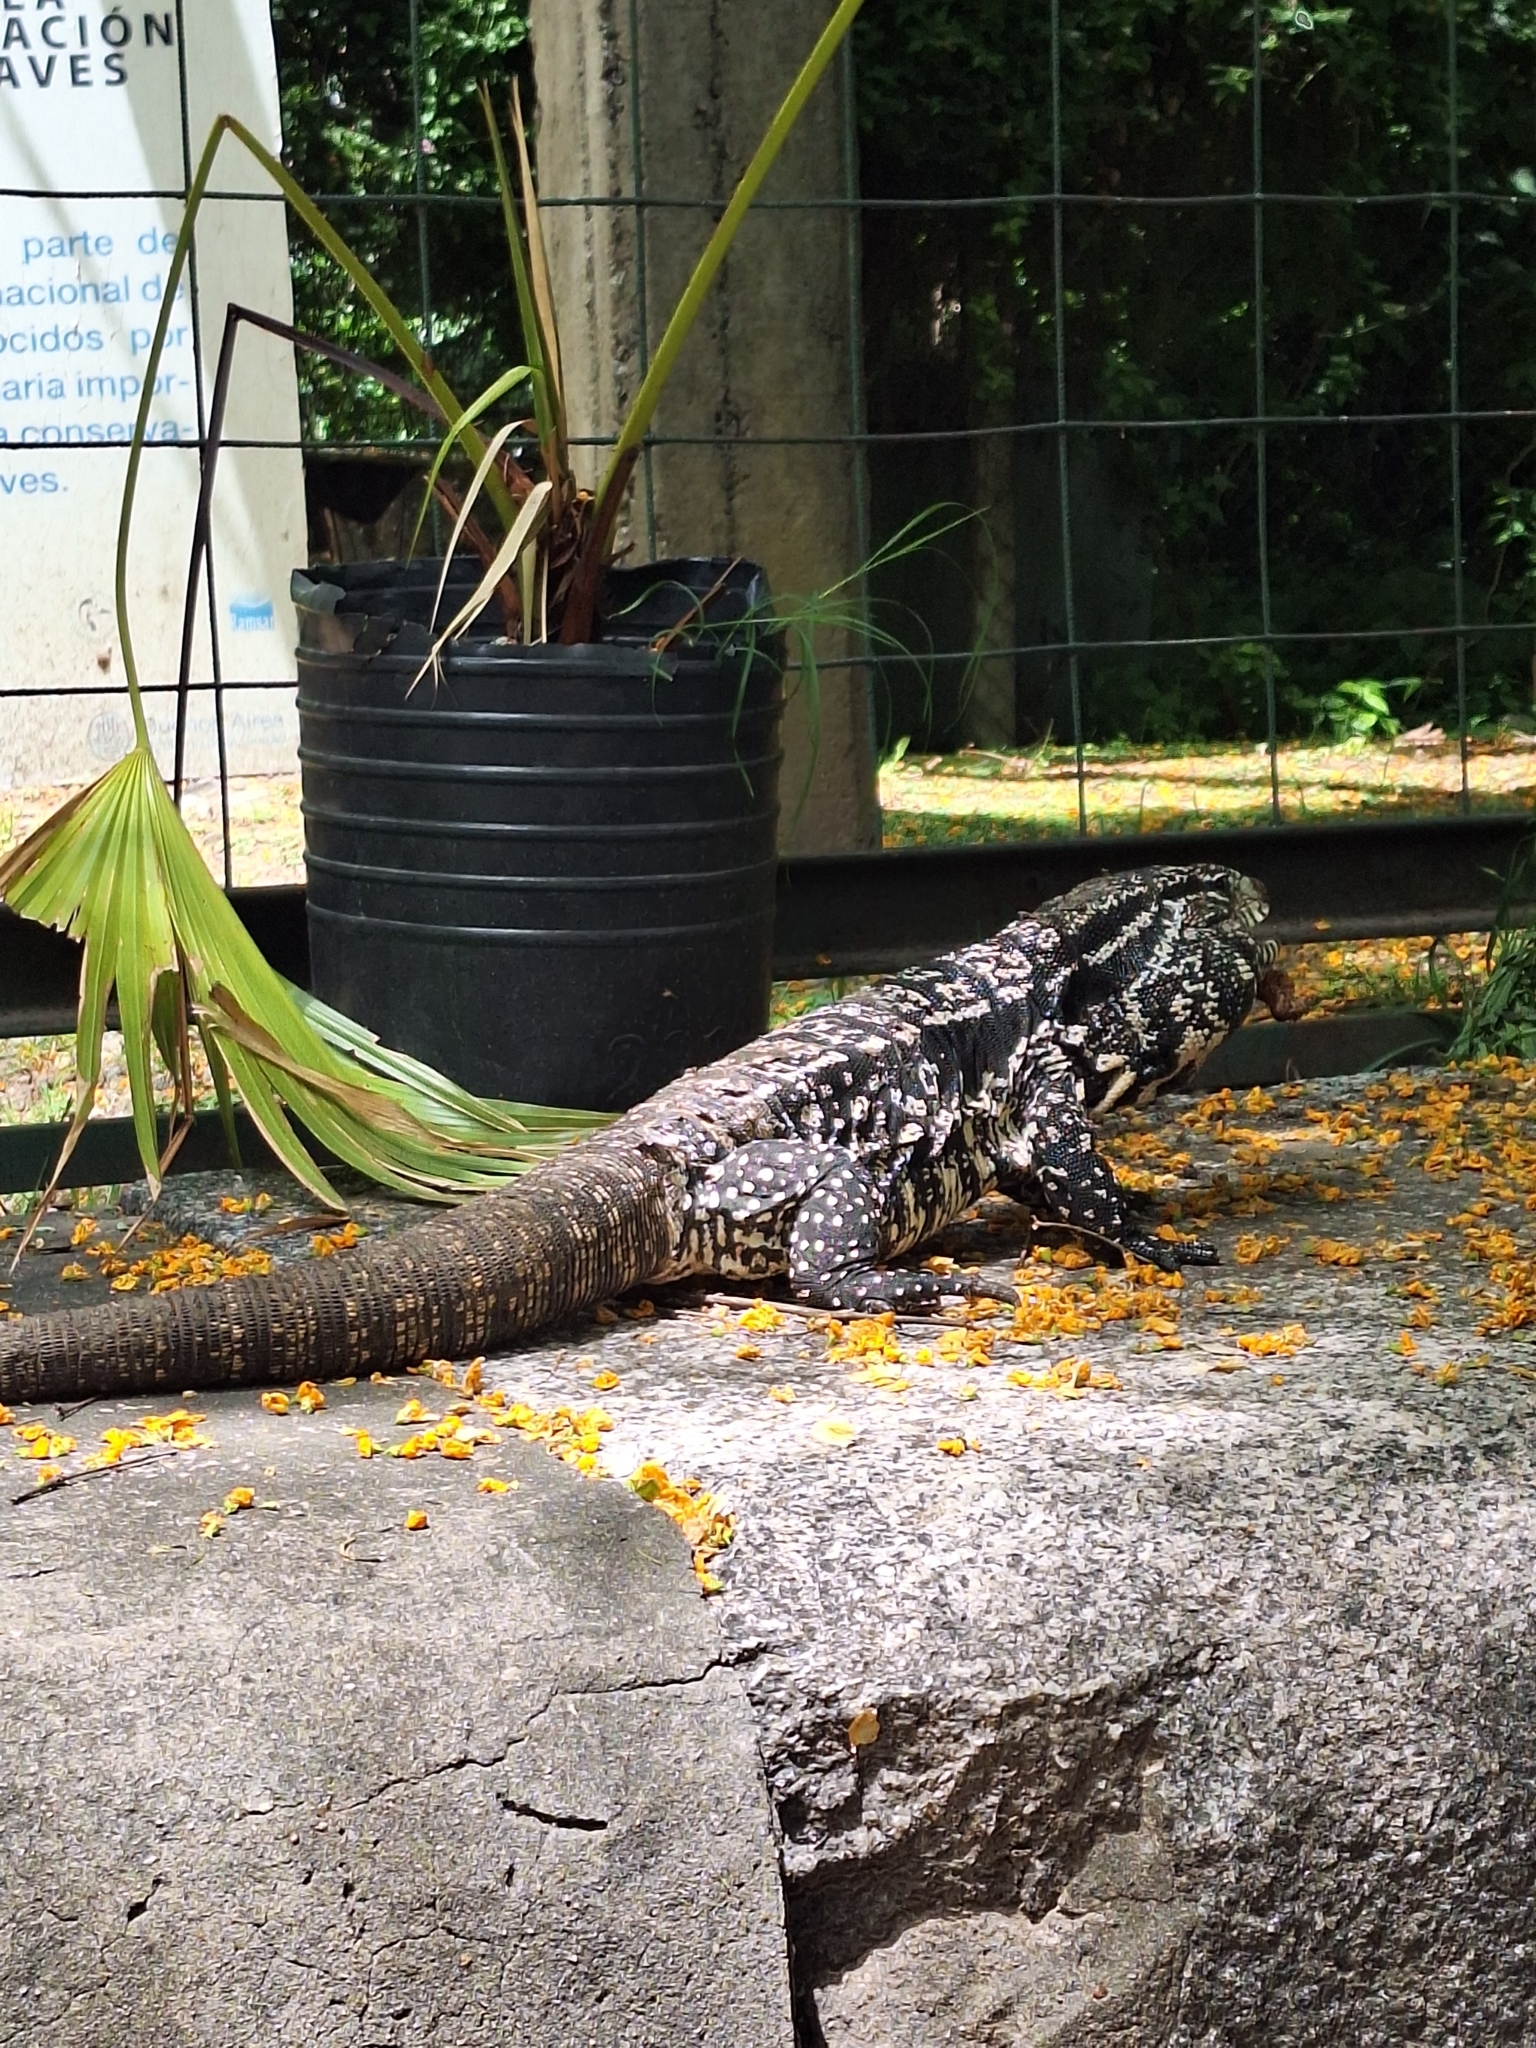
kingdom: Animalia
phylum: Chordata
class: Squamata
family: Teiidae
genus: Salvator
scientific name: Salvator merianae
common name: Argentine black and white tegu
